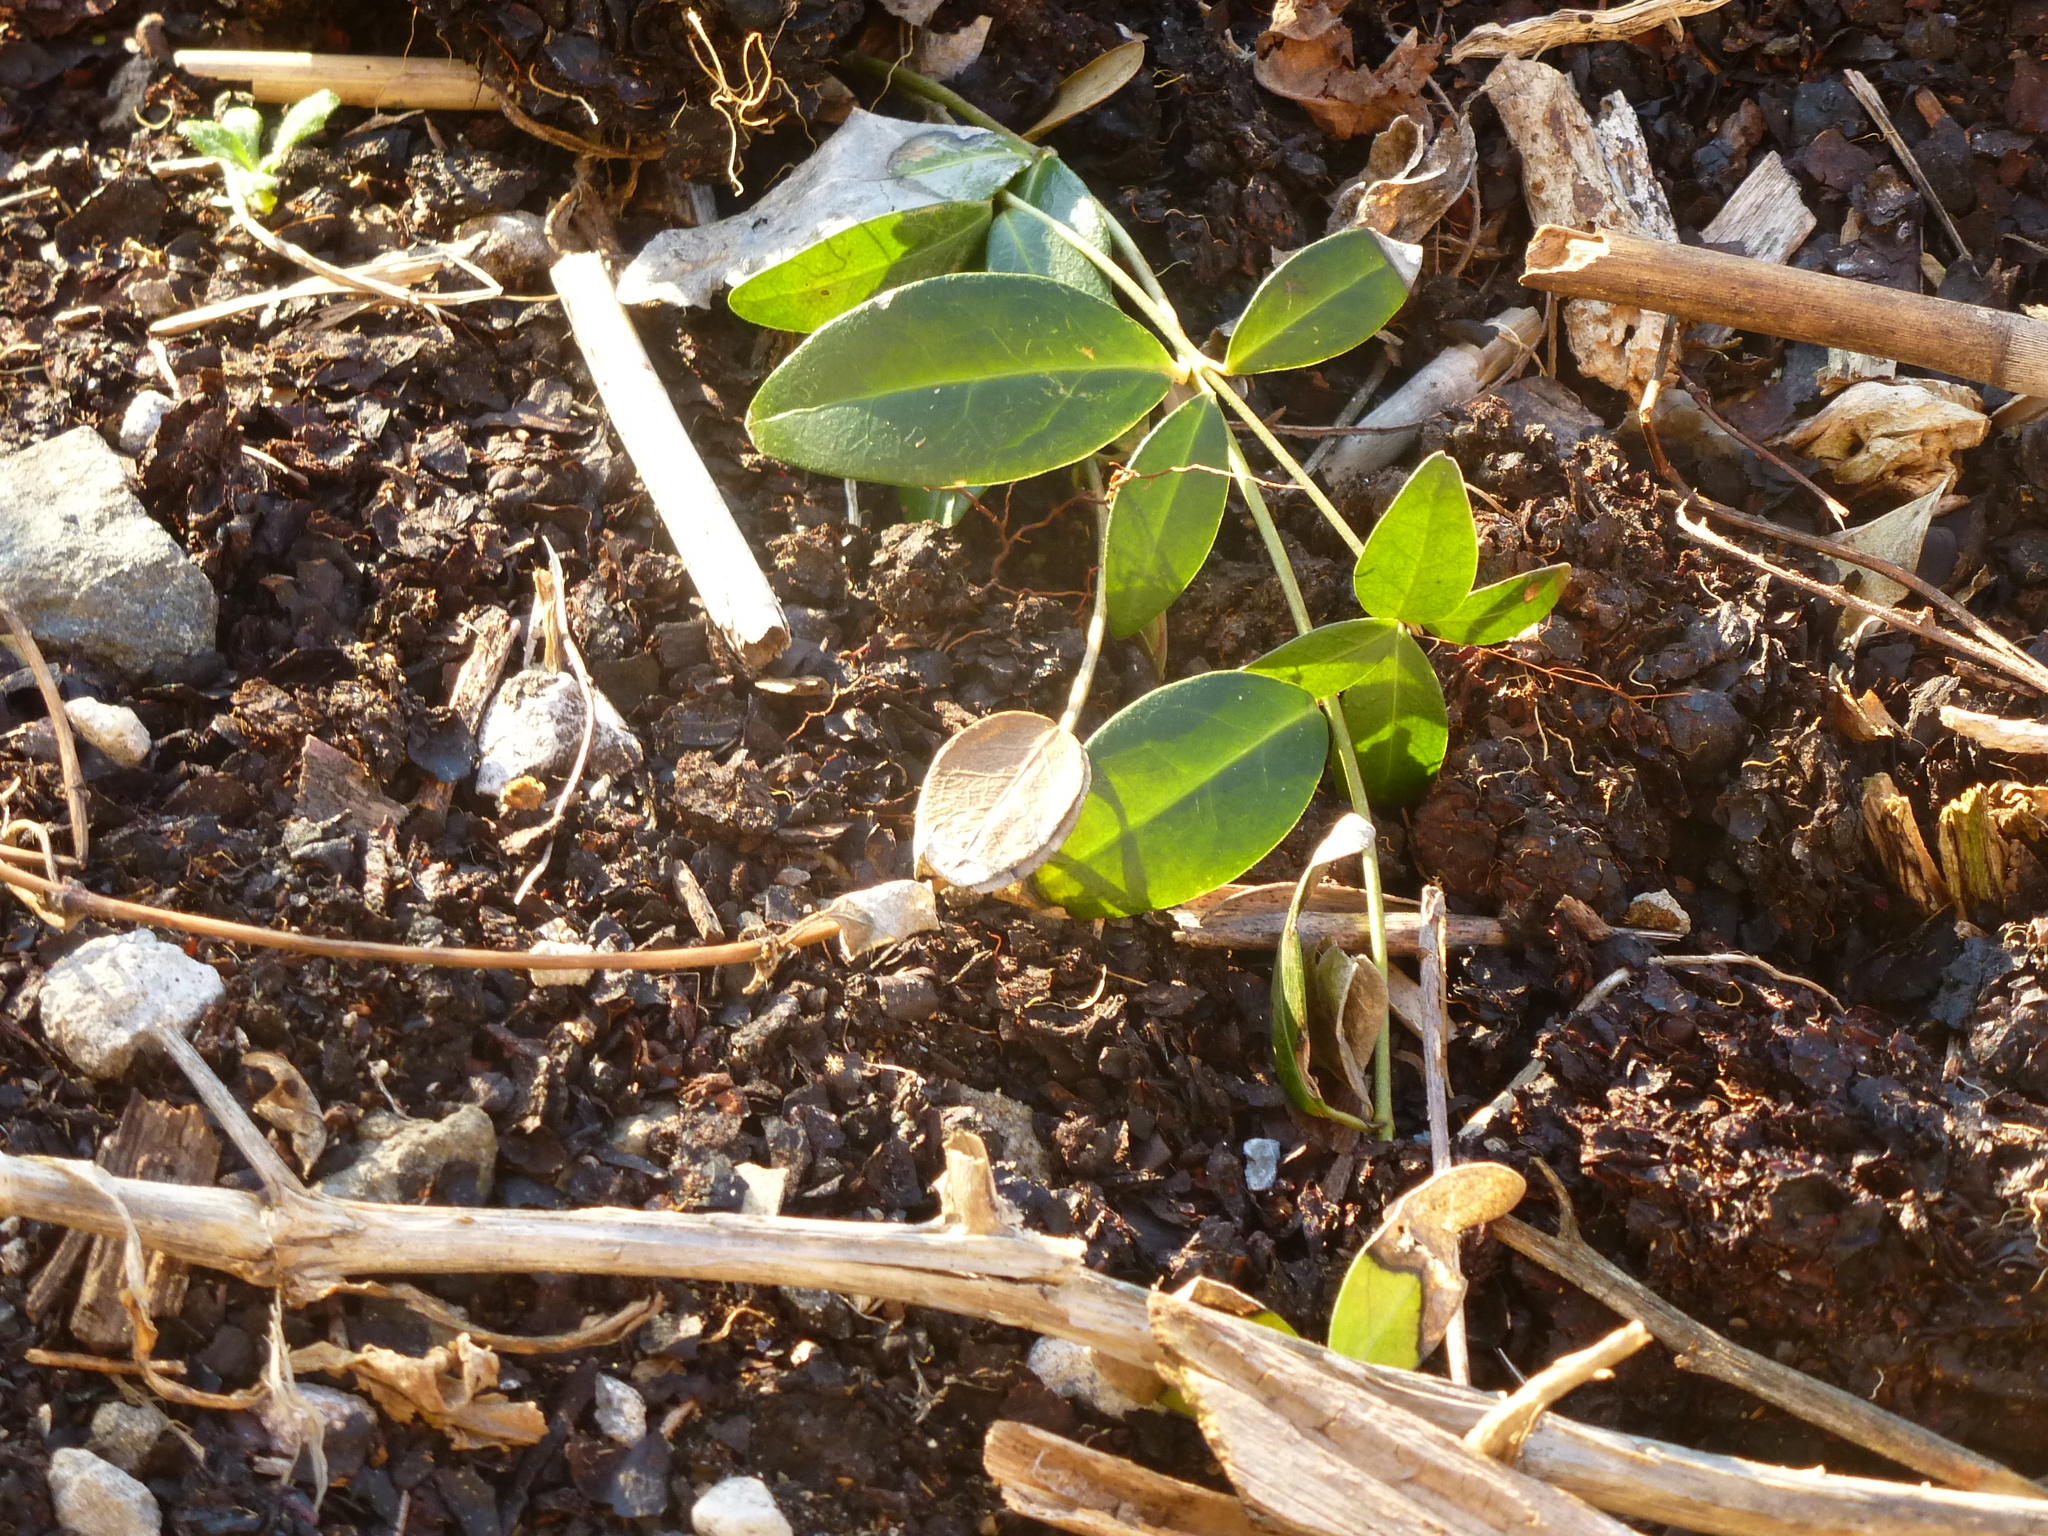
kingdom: Plantae
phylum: Tracheophyta
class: Magnoliopsida
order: Gentianales
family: Apocynaceae
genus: Vinca
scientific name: Vinca minor
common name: Lesser periwinkle
